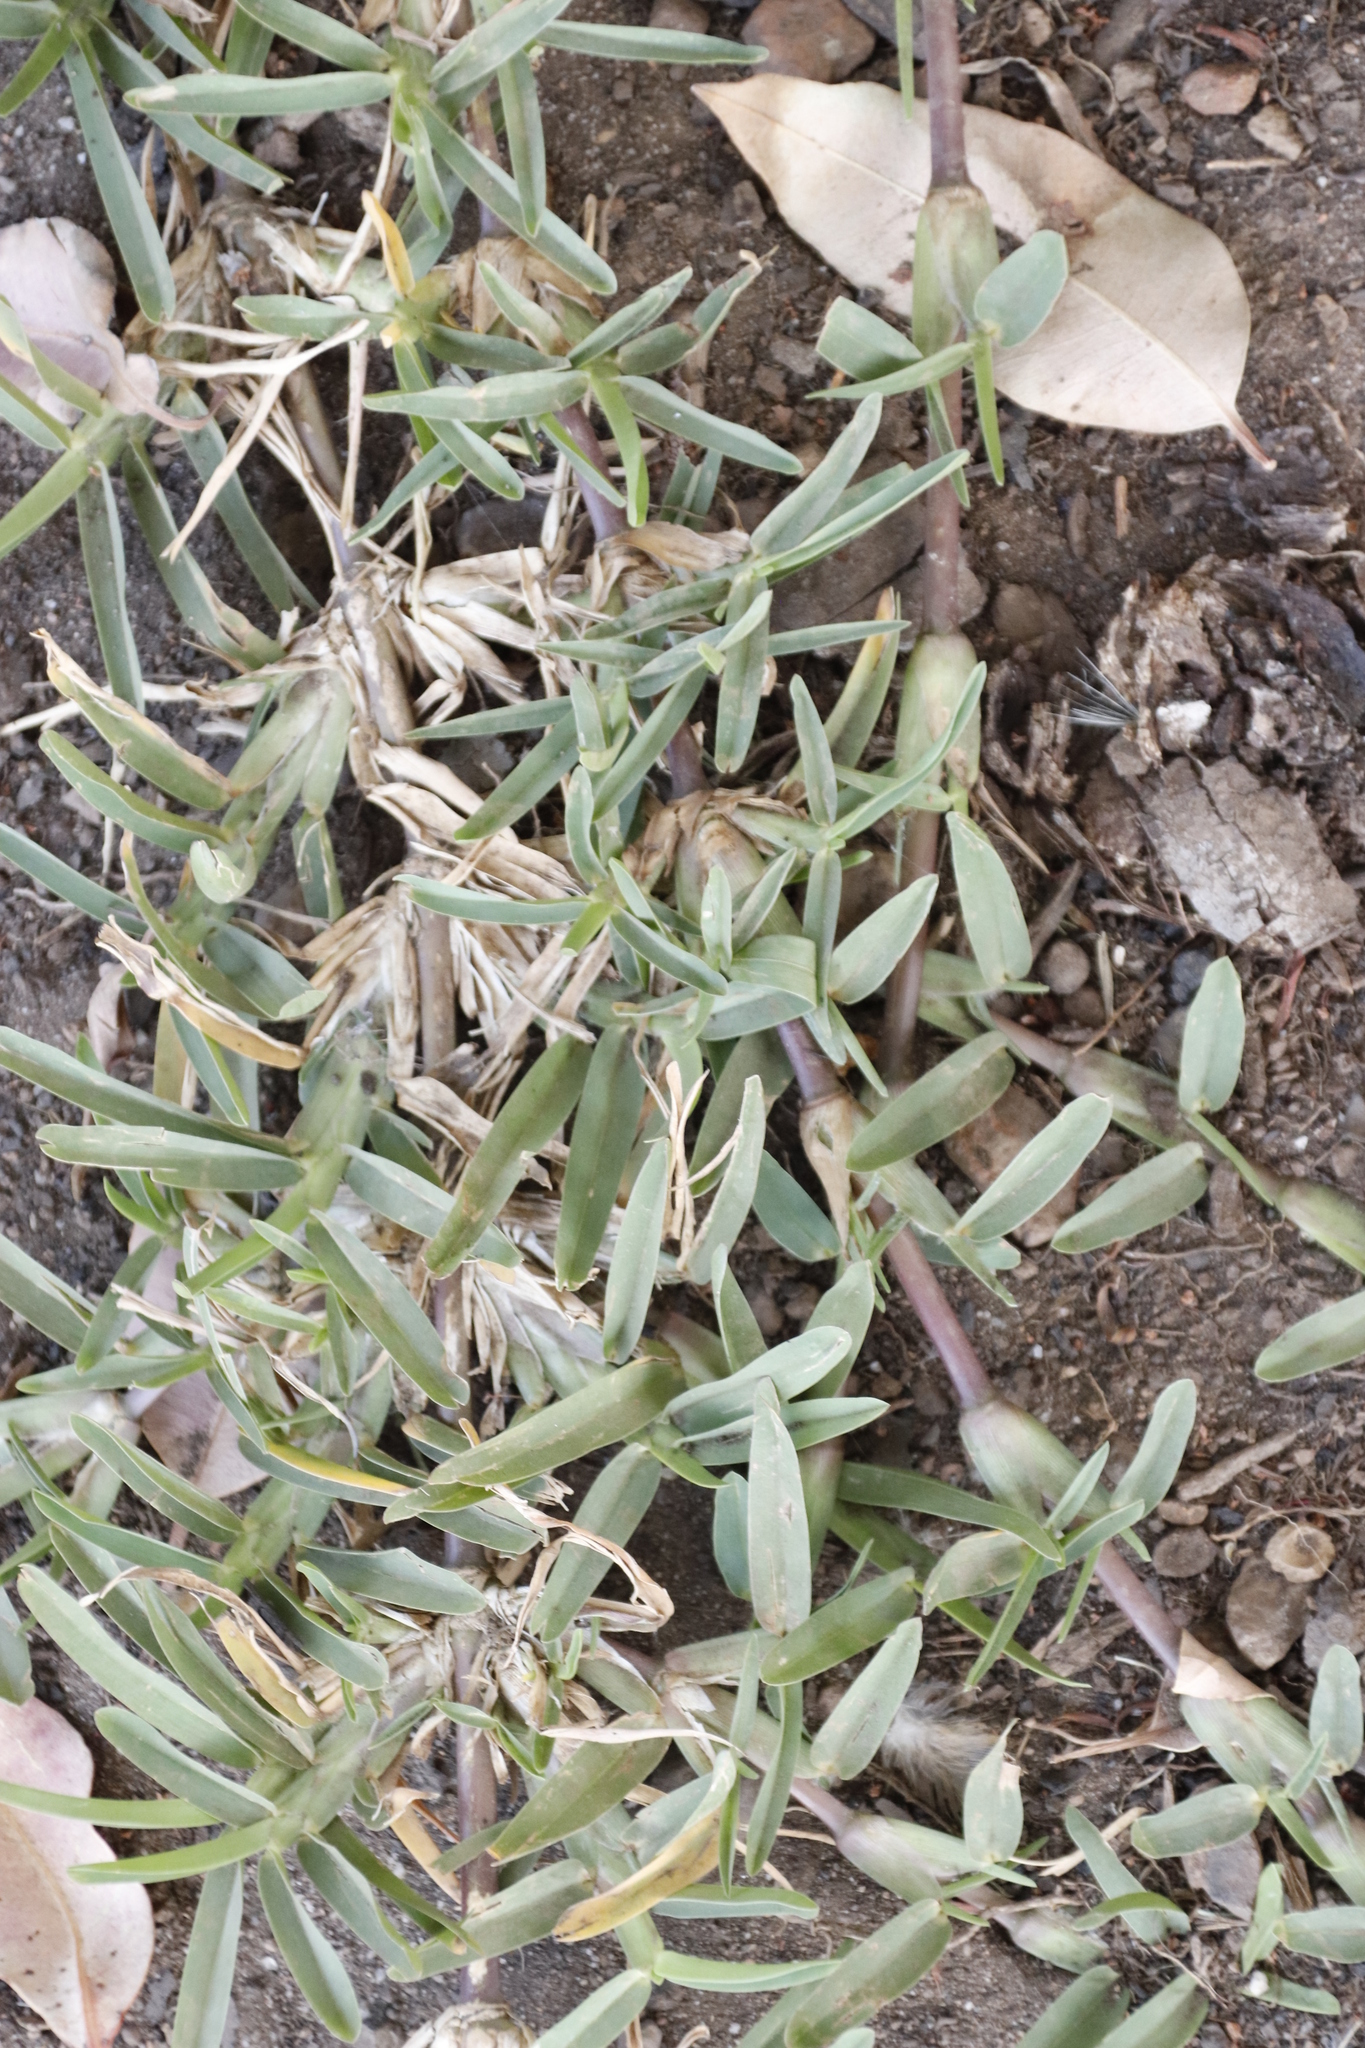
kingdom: Plantae
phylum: Tracheophyta
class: Liliopsida
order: Poales
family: Poaceae
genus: Stenotaphrum
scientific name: Stenotaphrum secundatum
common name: St. augustine grass
